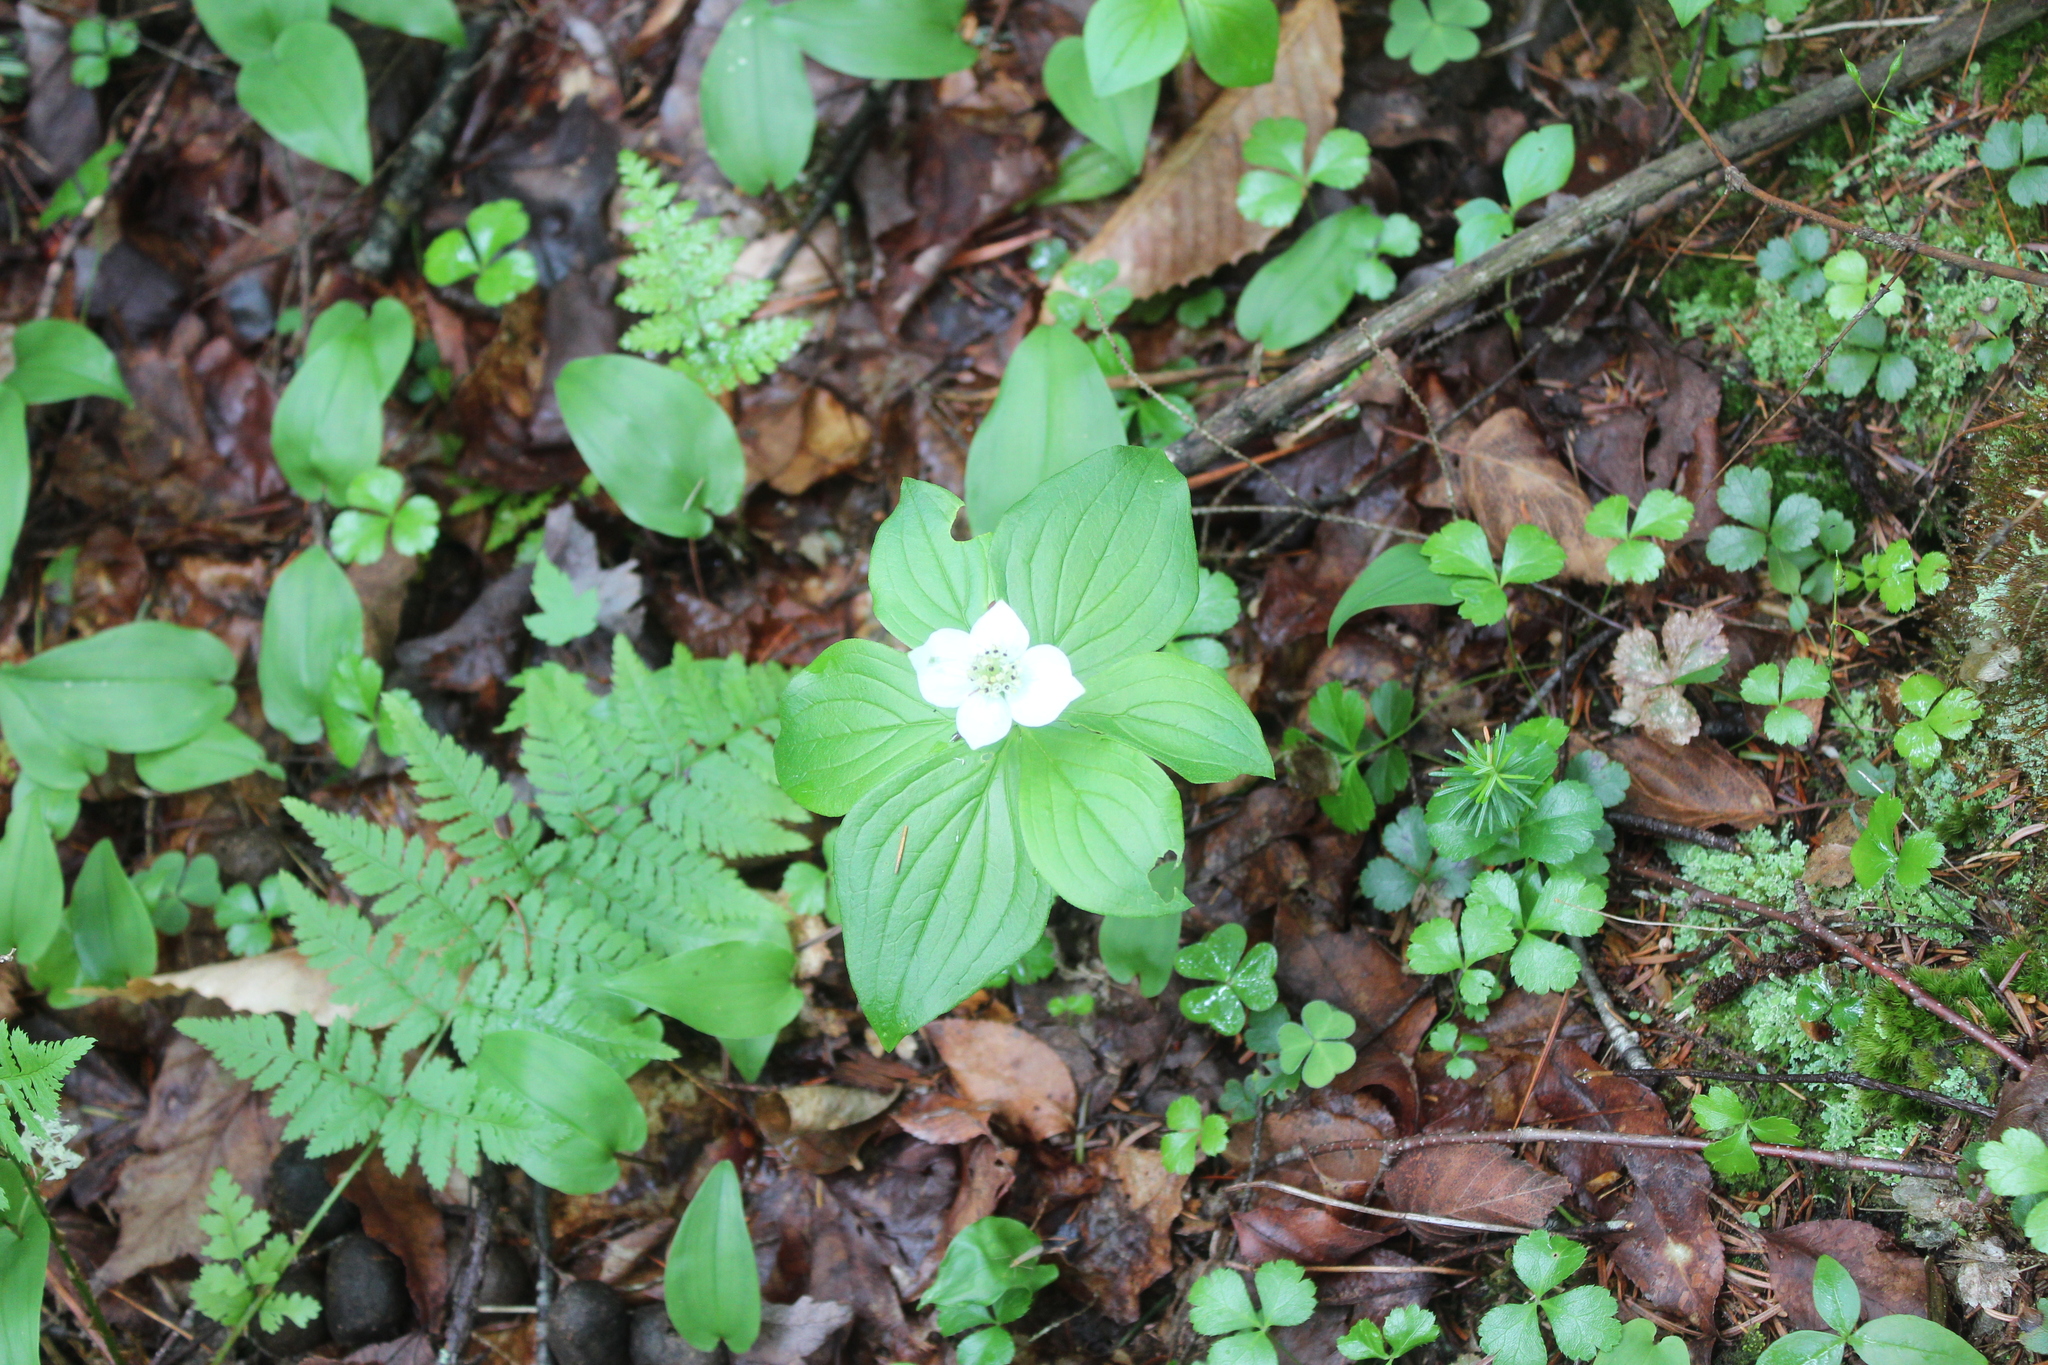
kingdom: Plantae
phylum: Tracheophyta
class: Magnoliopsida
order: Cornales
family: Cornaceae
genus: Cornus
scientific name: Cornus canadensis
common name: Creeping dogwood
